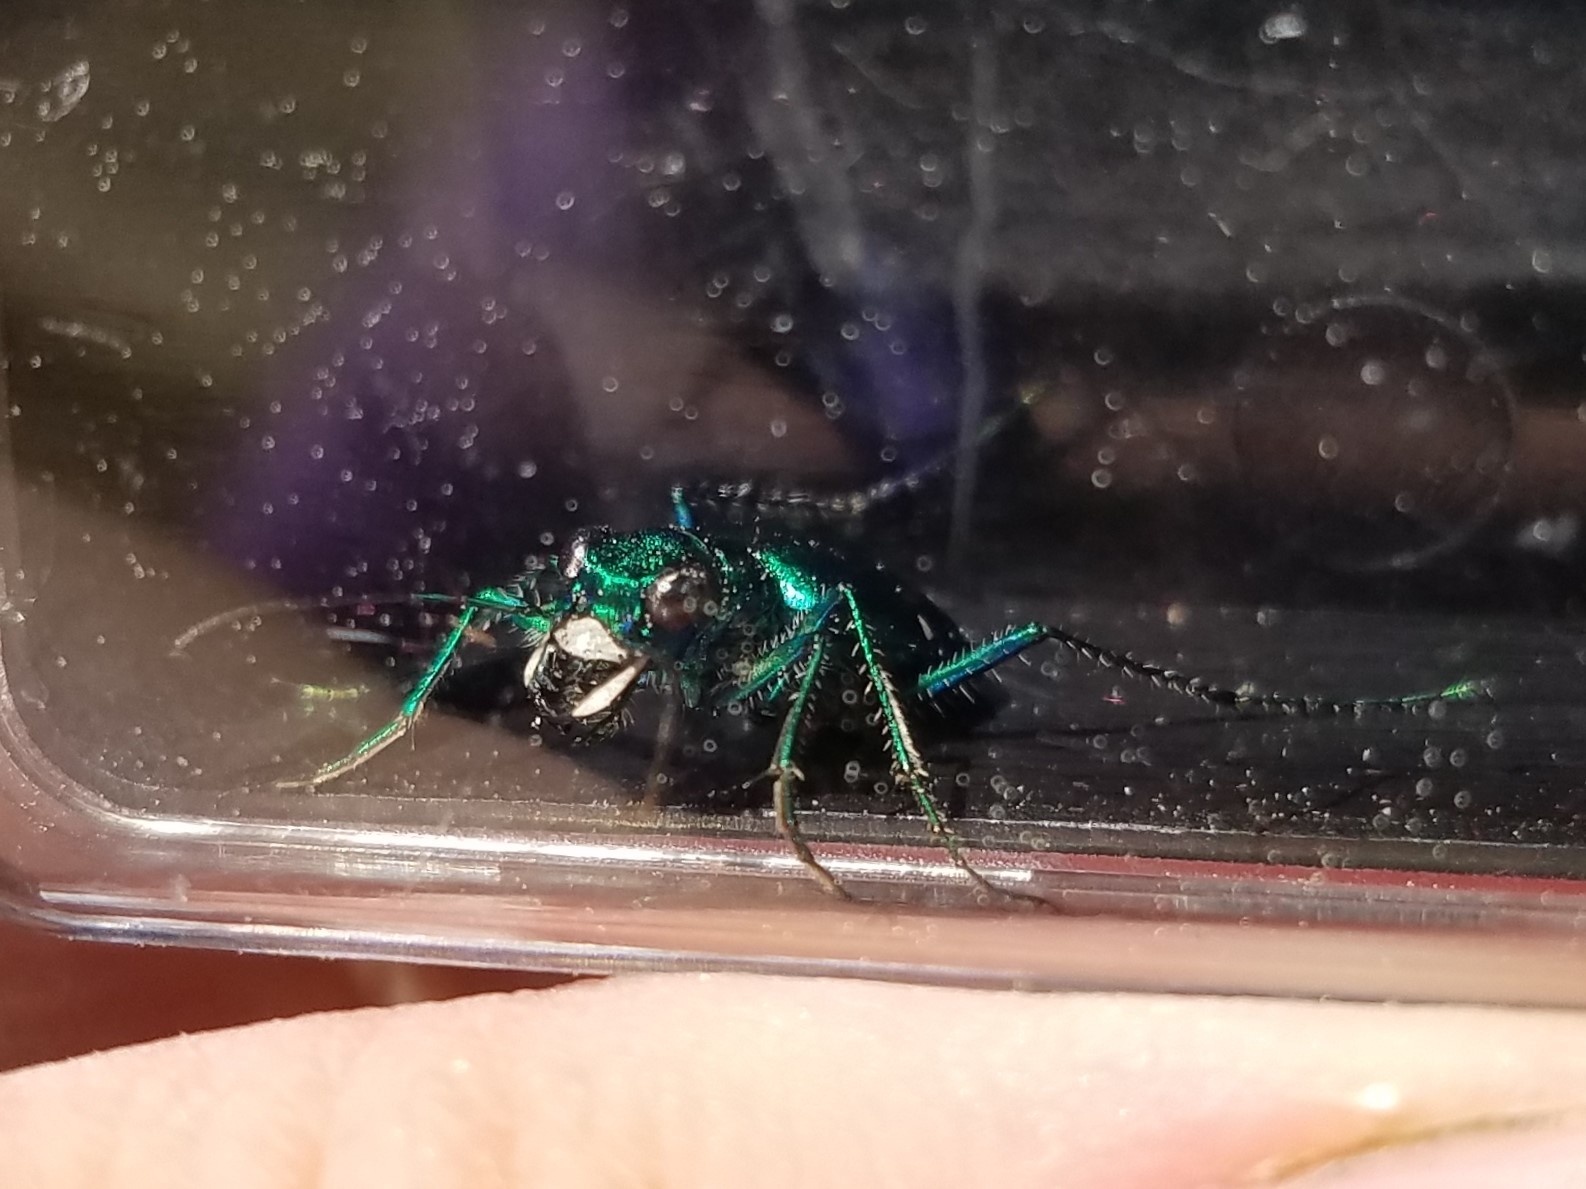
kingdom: Animalia
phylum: Arthropoda
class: Insecta
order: Coleoptera
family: Carabidae
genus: Cicindela
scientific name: Cicindela sexguttata
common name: Six-spotted tiger beetle
